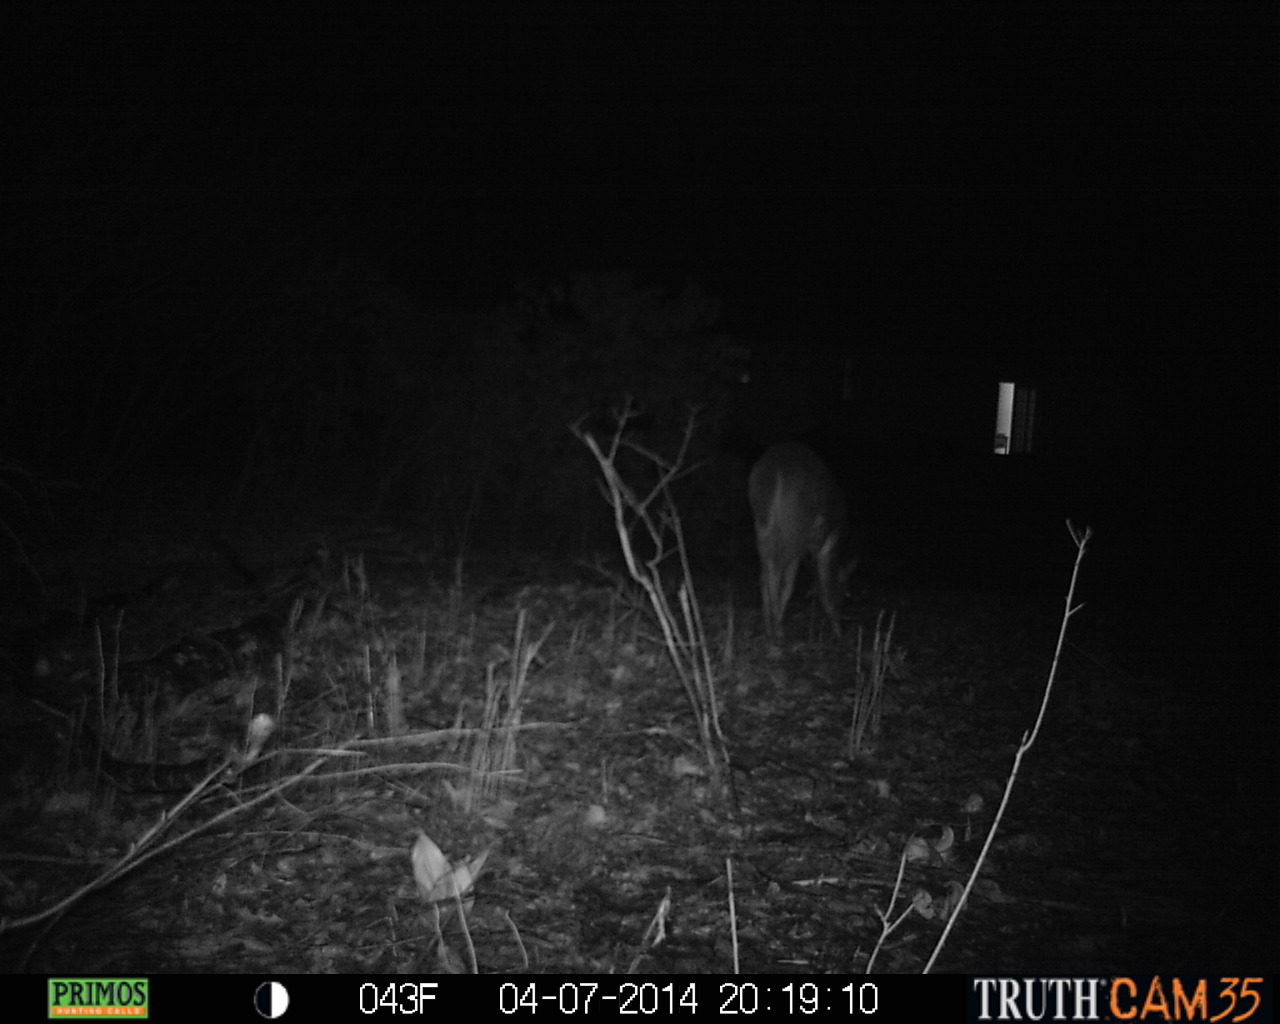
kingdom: Animalia
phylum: Chordata
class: Mammalia
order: Artiodactyla
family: Cervidae
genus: Odocoileus
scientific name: Odocoileus virginianus
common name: White-tailed deer
